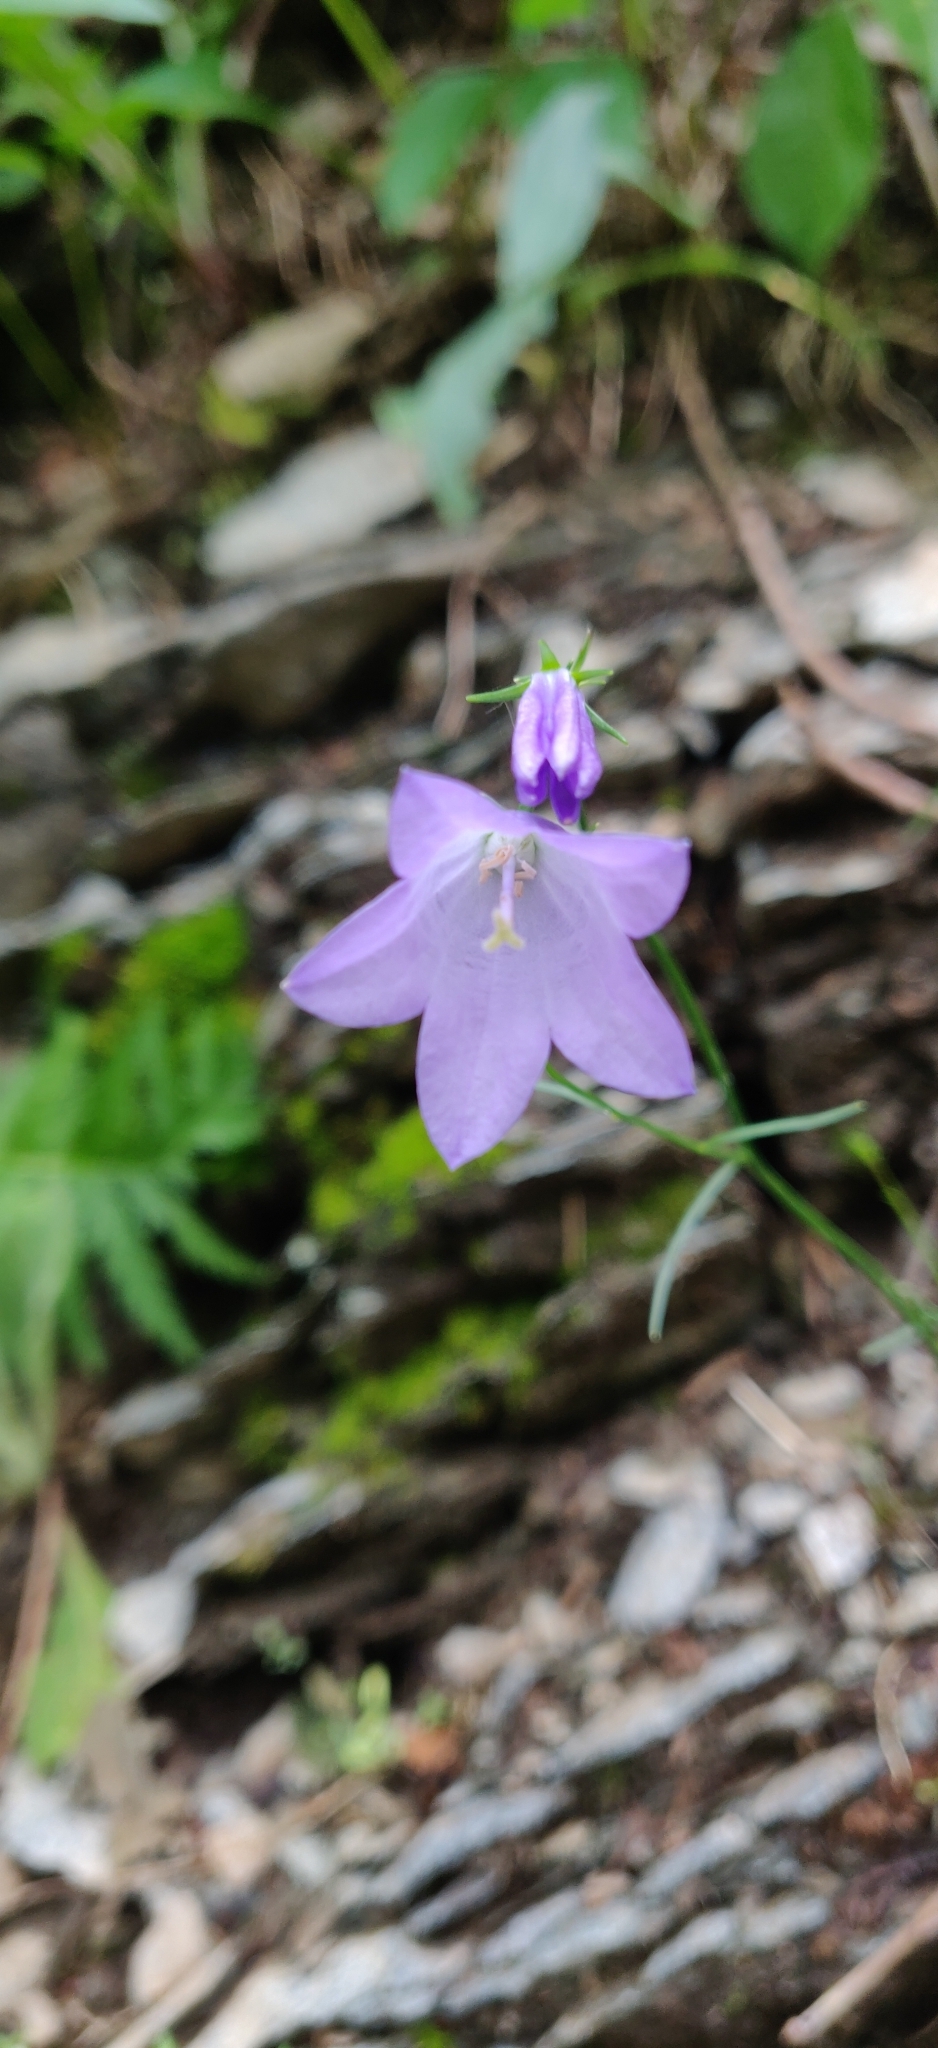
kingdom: Plantae
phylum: Tracheophyta
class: Magnoliopsida
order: Asterales
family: Campanulaceae
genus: Campanula
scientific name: Campanula petiolata
